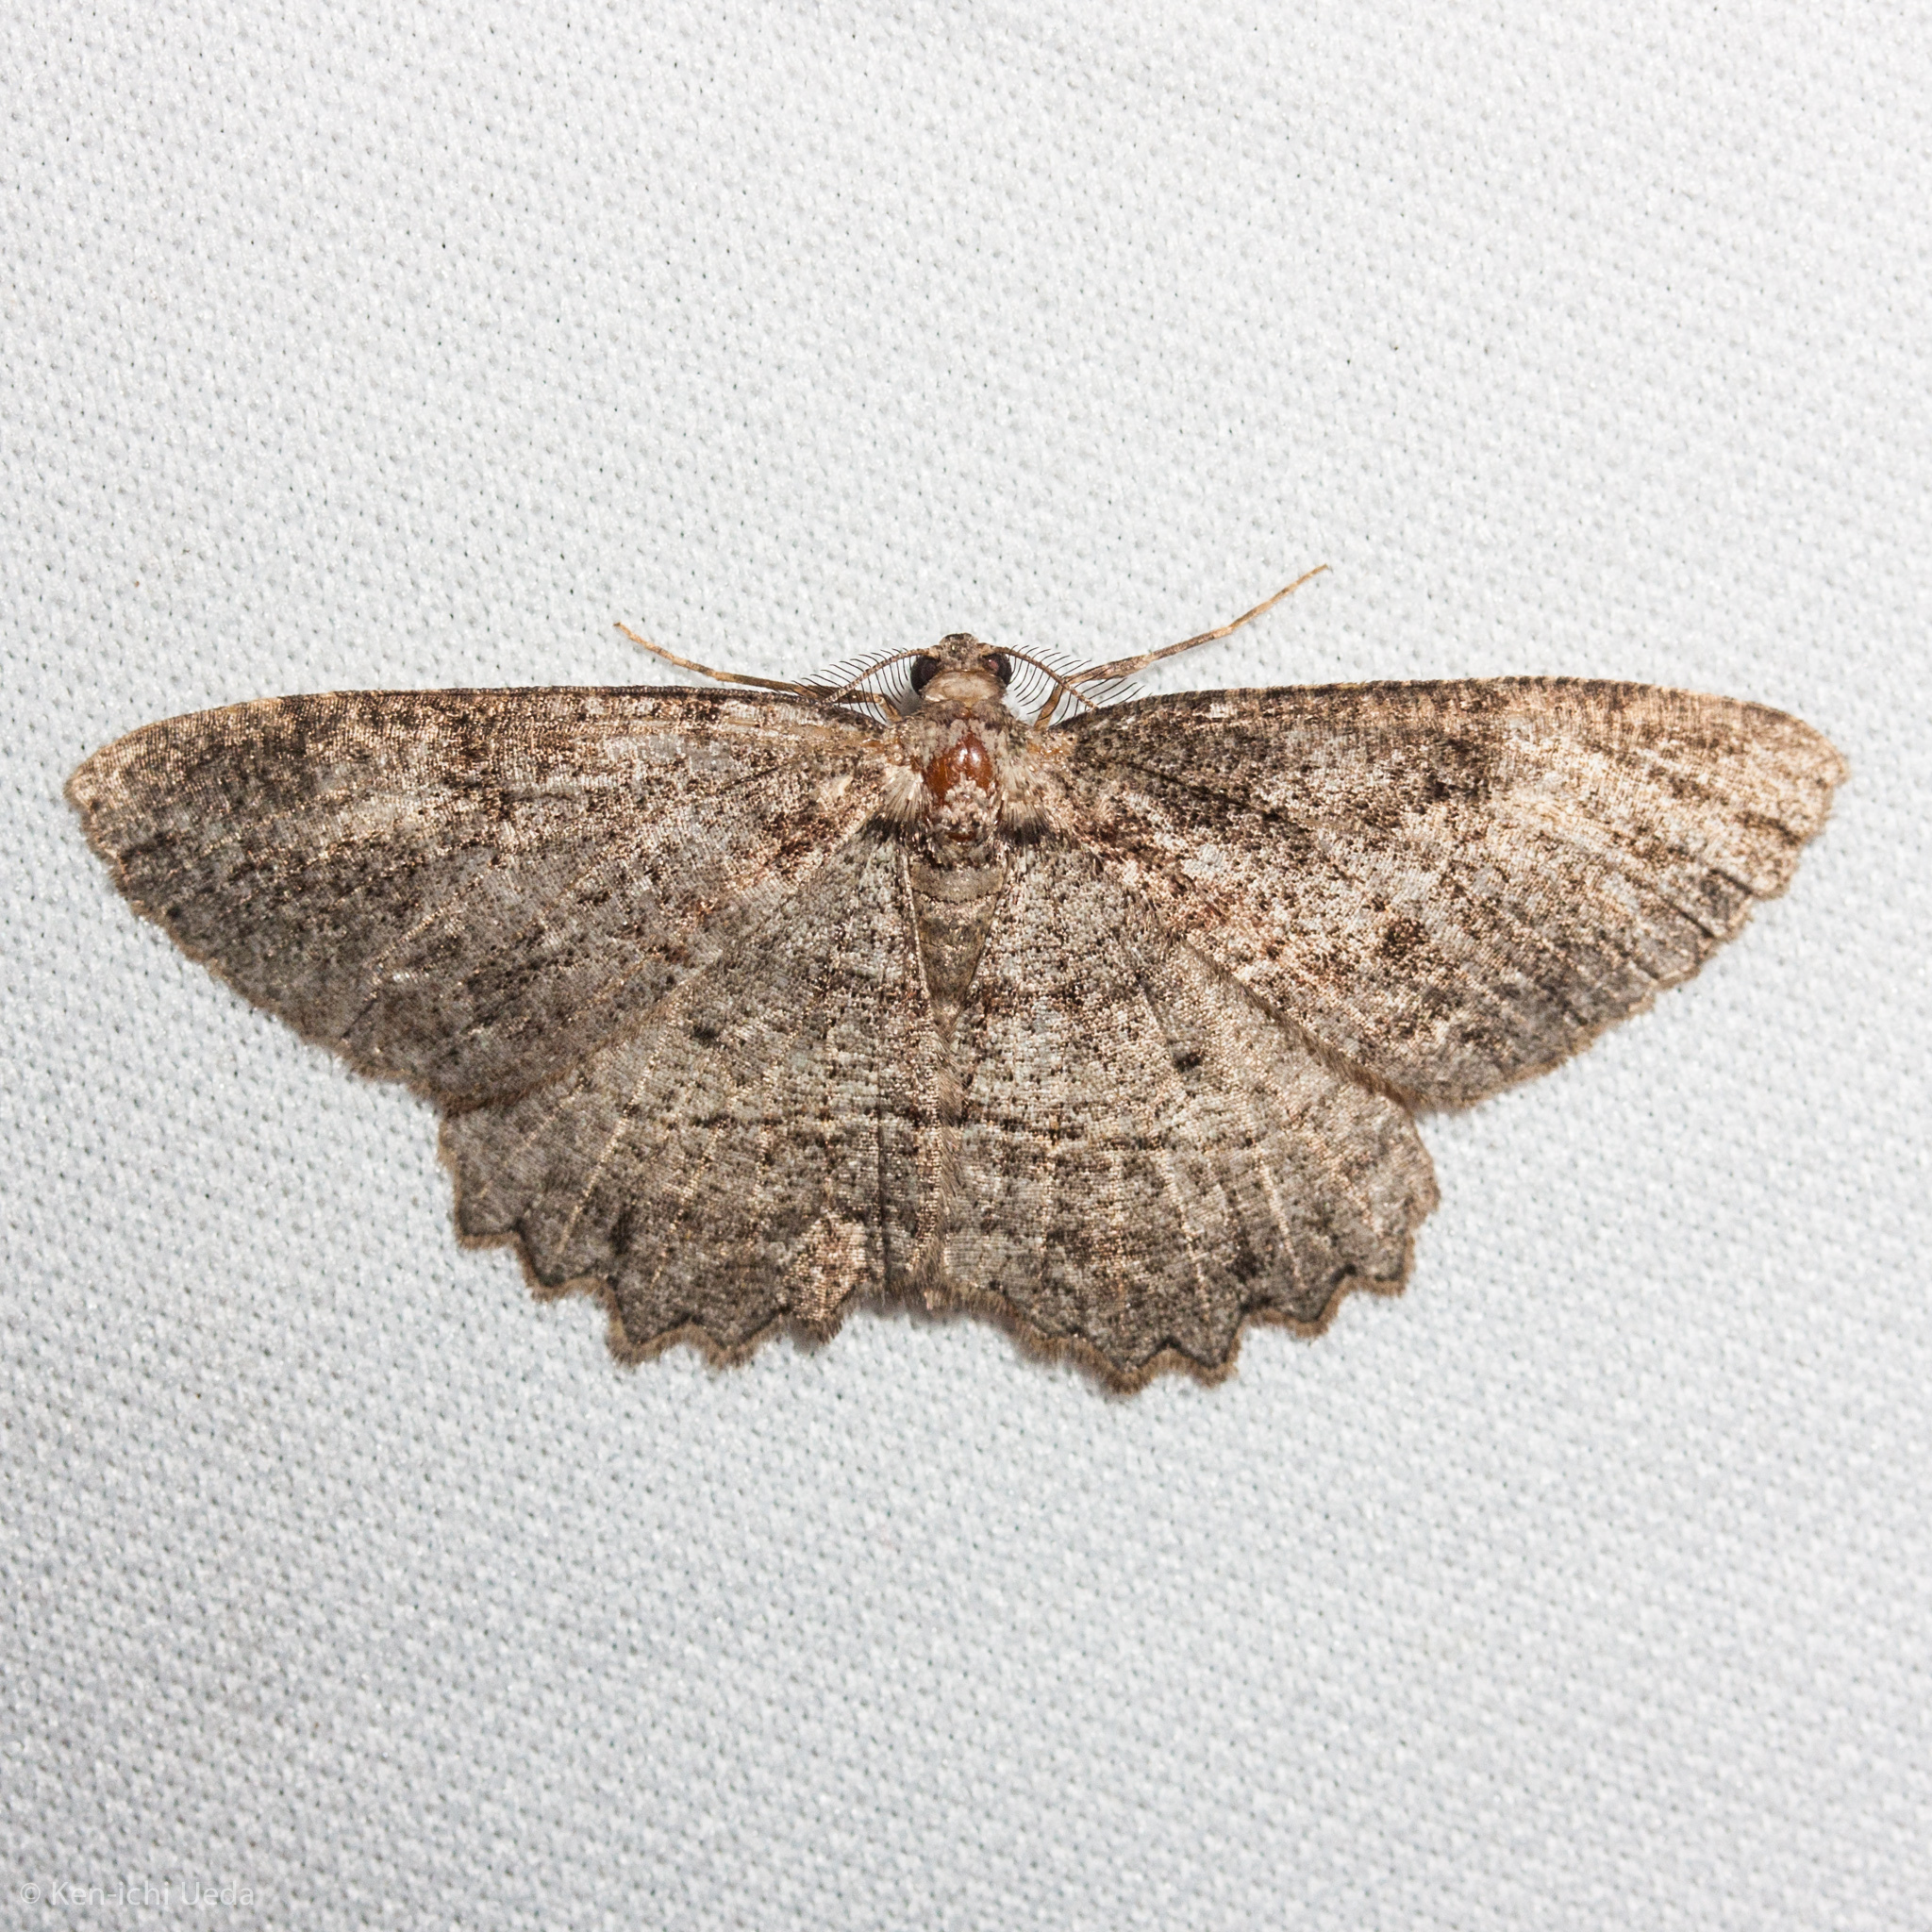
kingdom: Animalia
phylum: Arthropoda
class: Insecta
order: Lepidoptera
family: Geometridae
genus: Neoalcis
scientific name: Neoalcis californiaria
